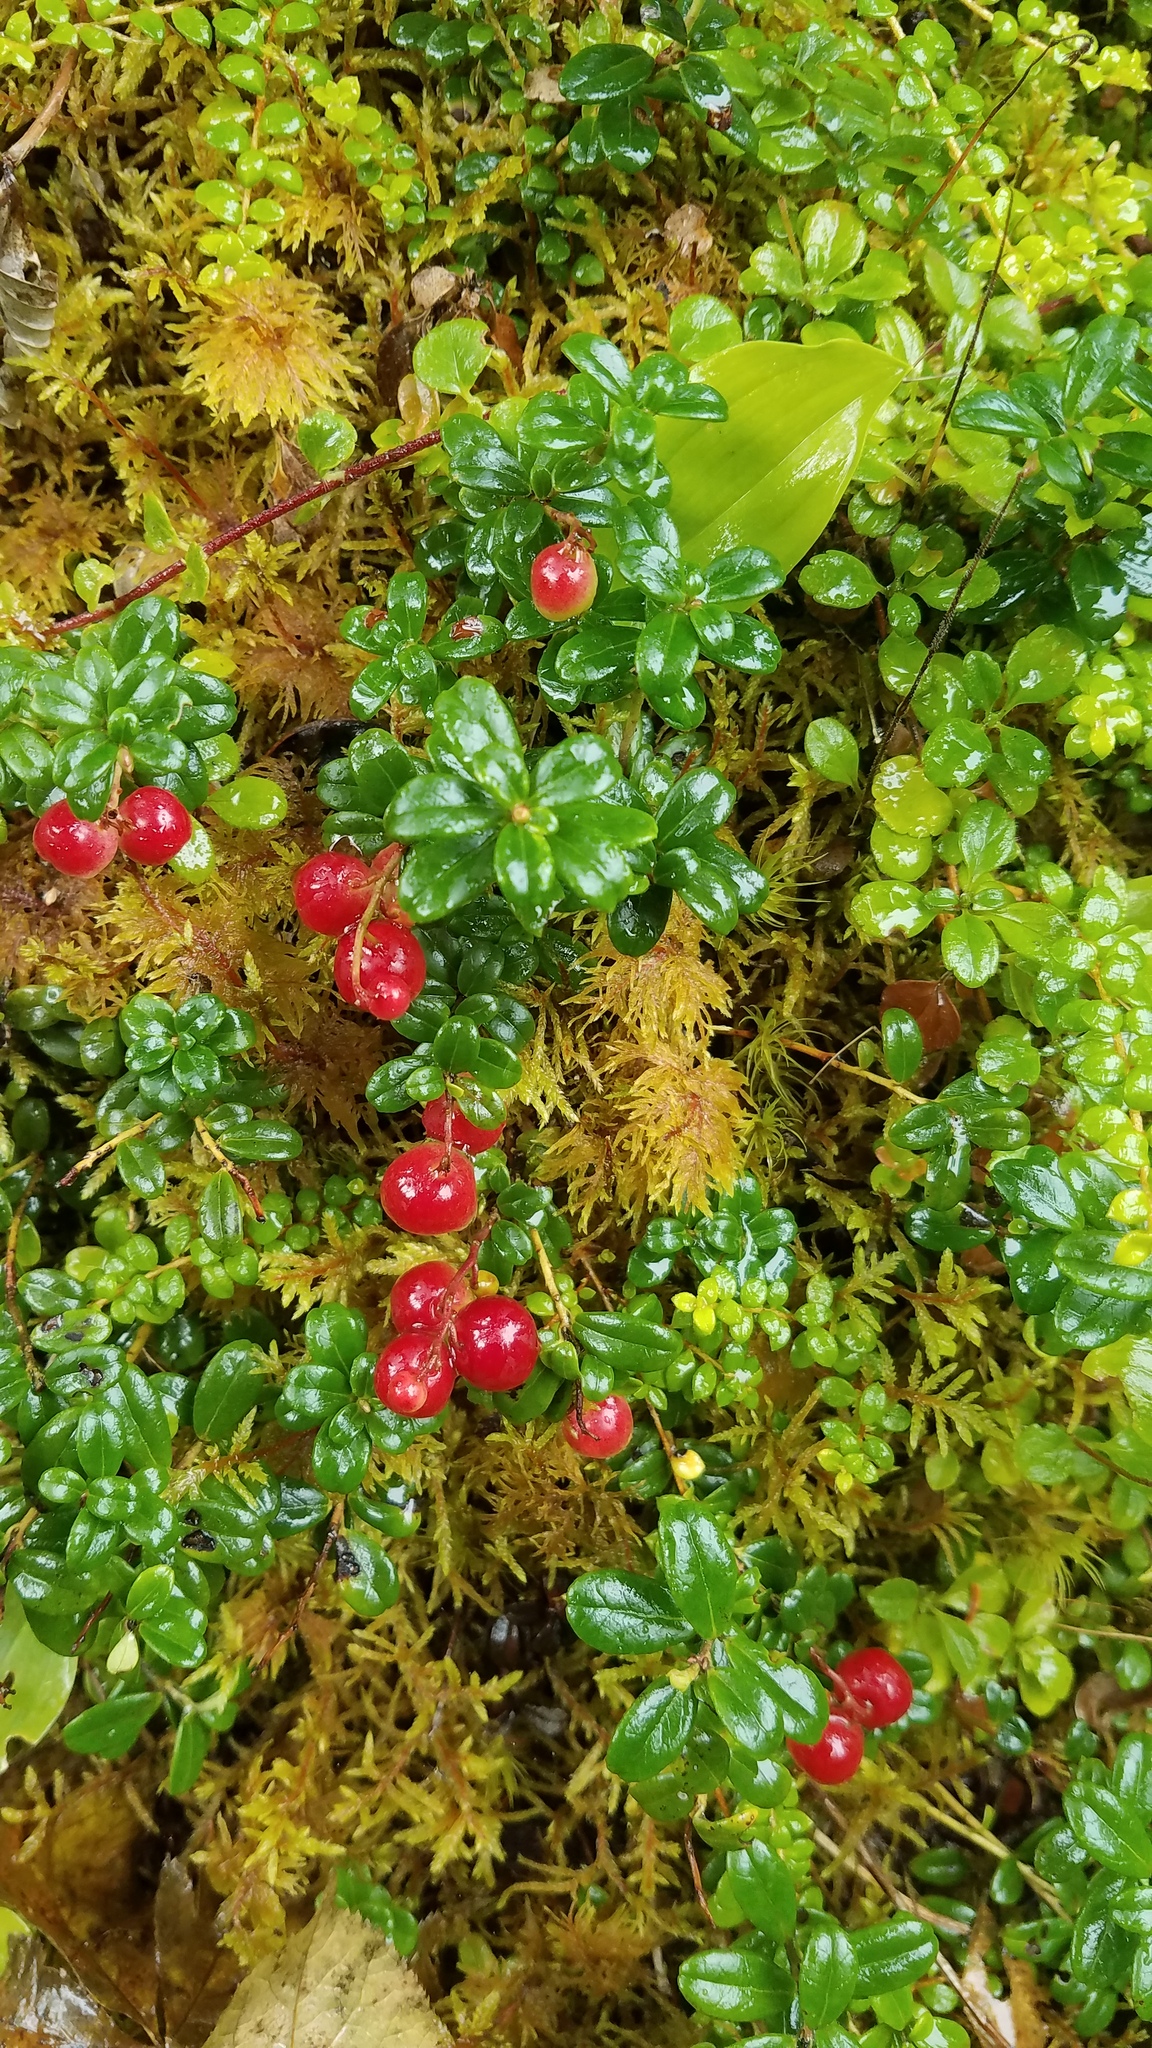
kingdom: Plantae
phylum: Tracheophyta
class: Magnoliopsida
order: Ericales
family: Ericaceae
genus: Vaccinium
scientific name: Vaccinium vitis-idaea
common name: Cowberry
